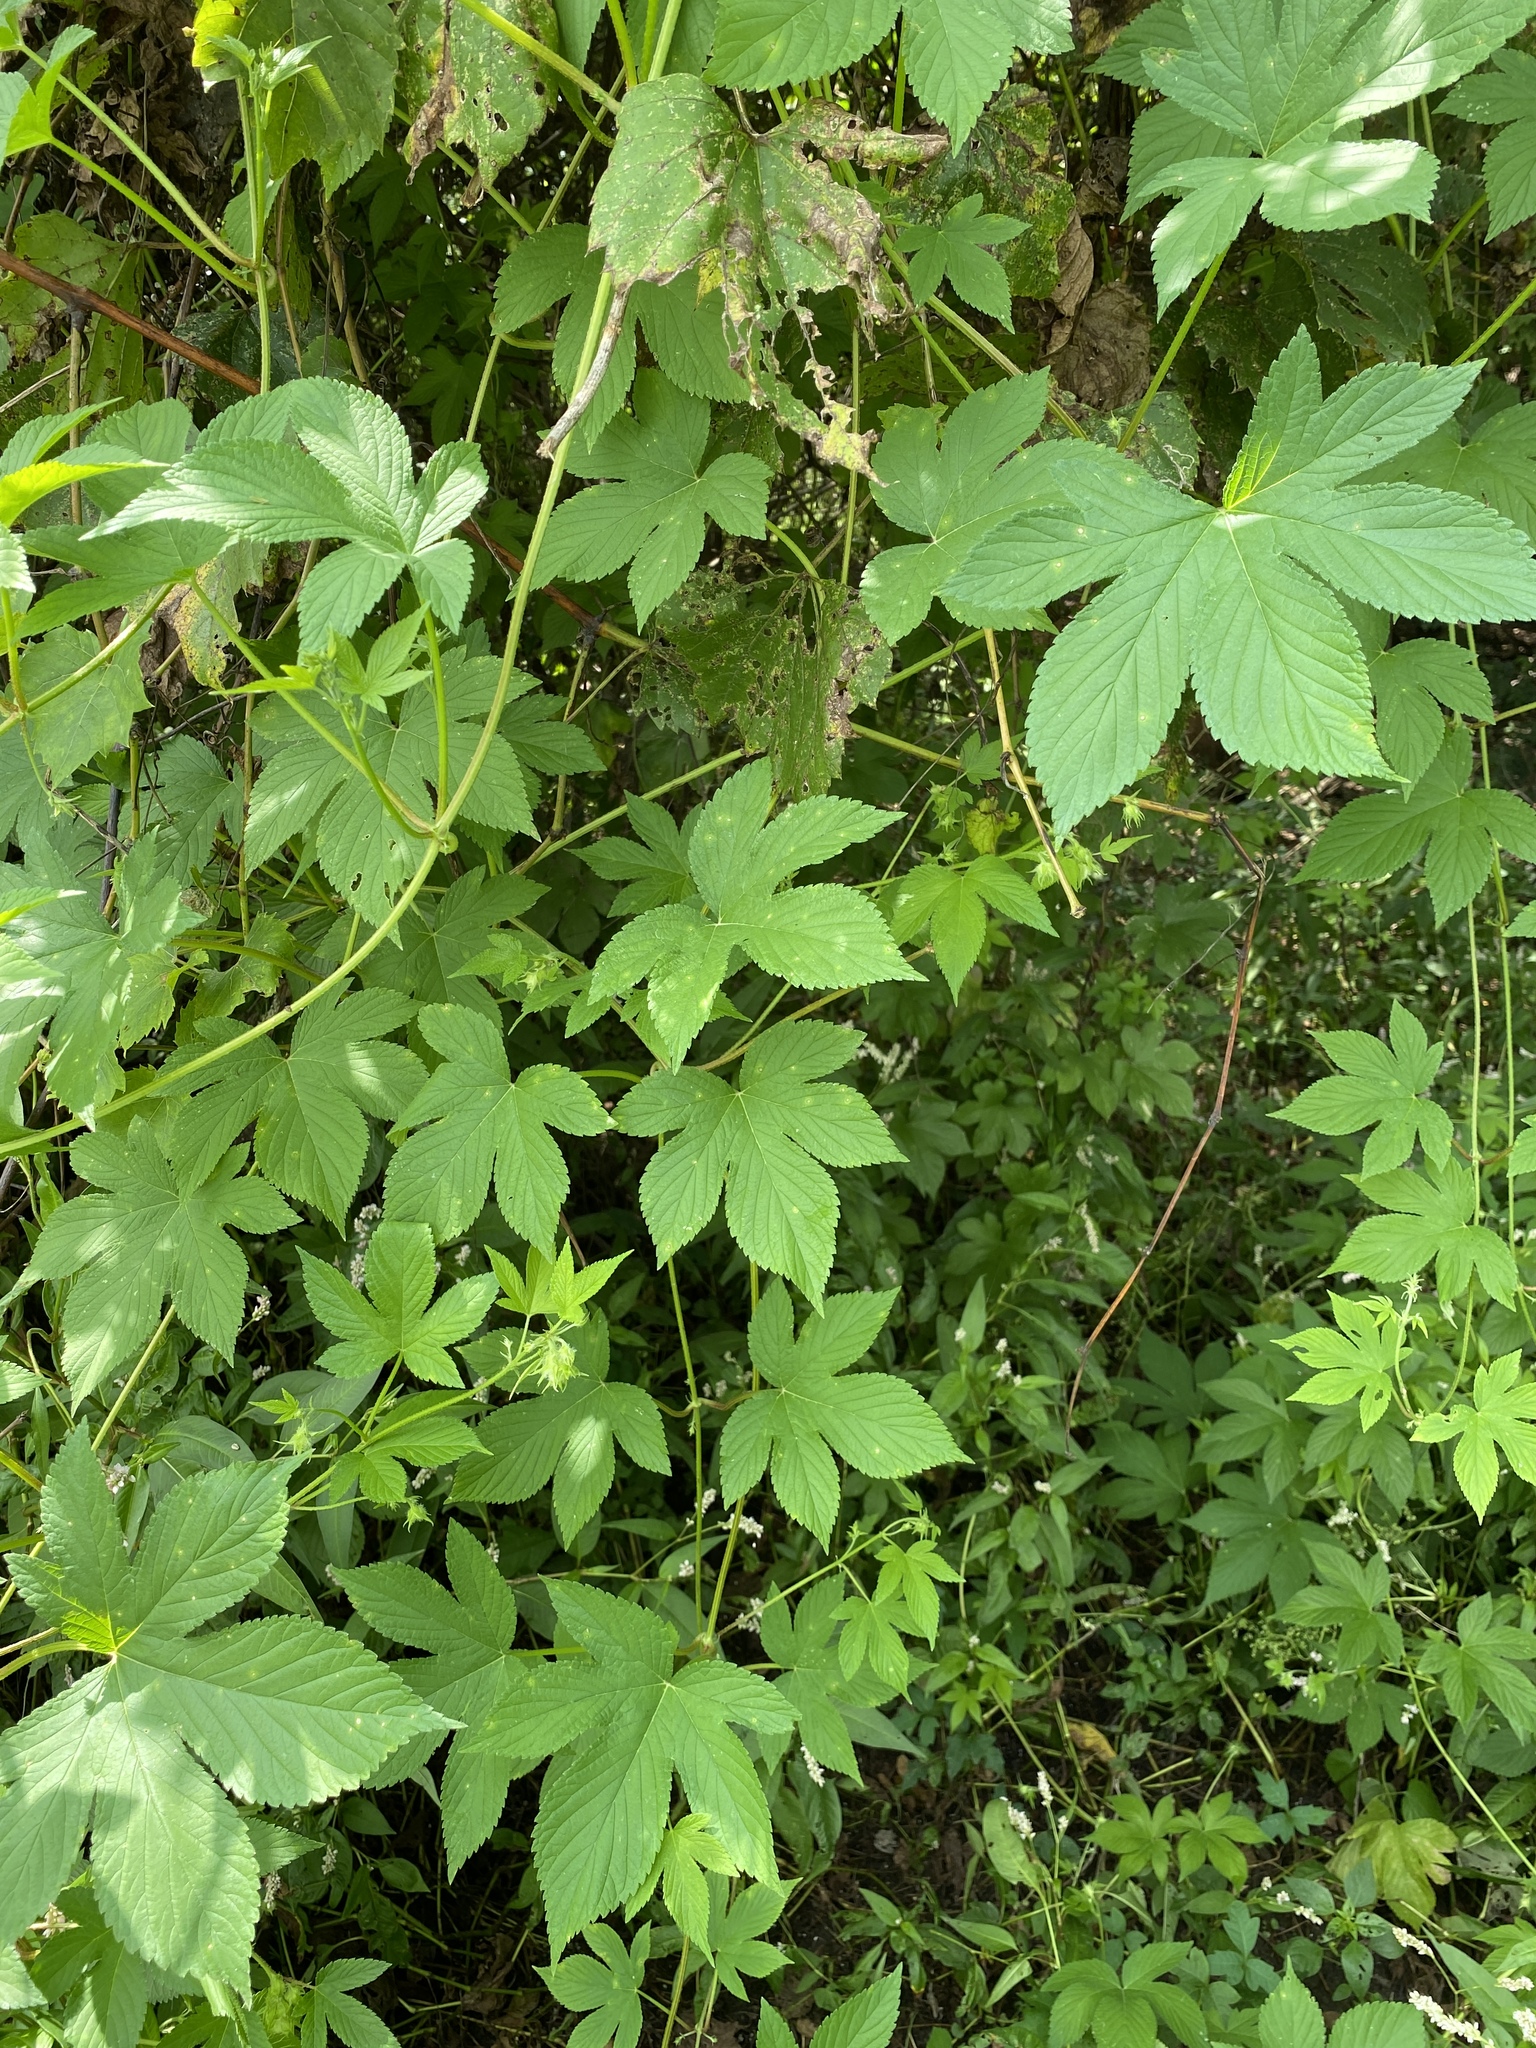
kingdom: Plantae
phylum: Tracheophyta
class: Magnoliopsida
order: Rosales
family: Cannabaceae
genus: Humulus
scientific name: Humulus scandens
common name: Japanese hop
